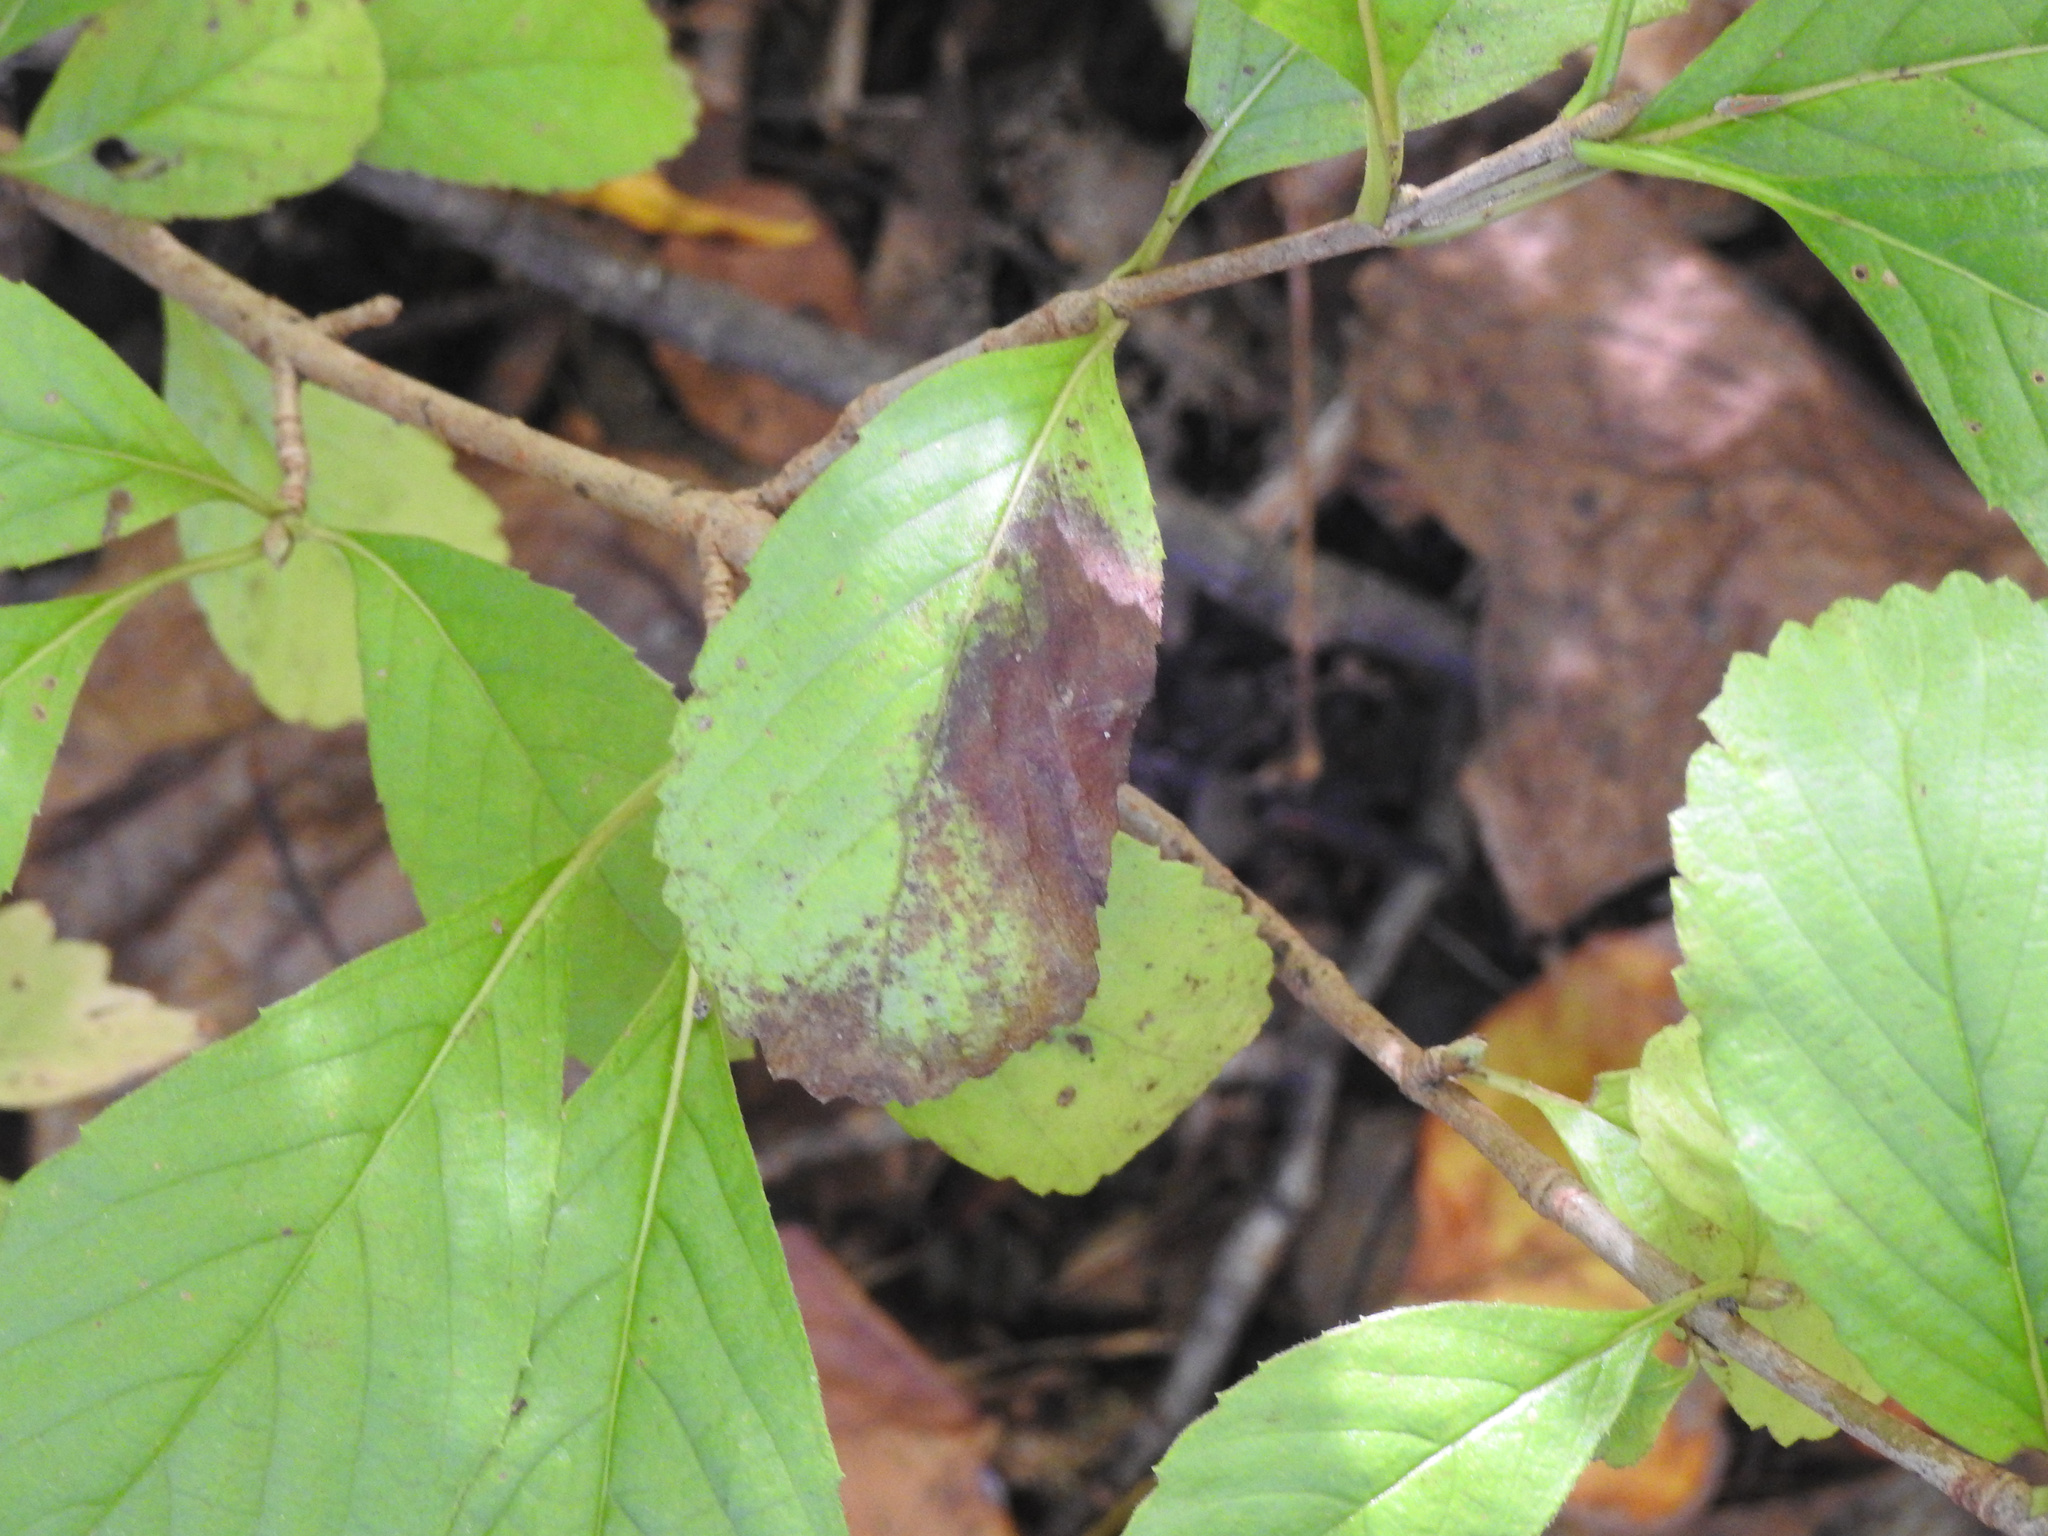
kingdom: Plantae
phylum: Tracheophyta
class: Magnoliopsida
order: Dipsacales
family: Viburnaceae
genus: Viburnum
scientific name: Viburnum sieboldii
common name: Siebold's arrowwood
